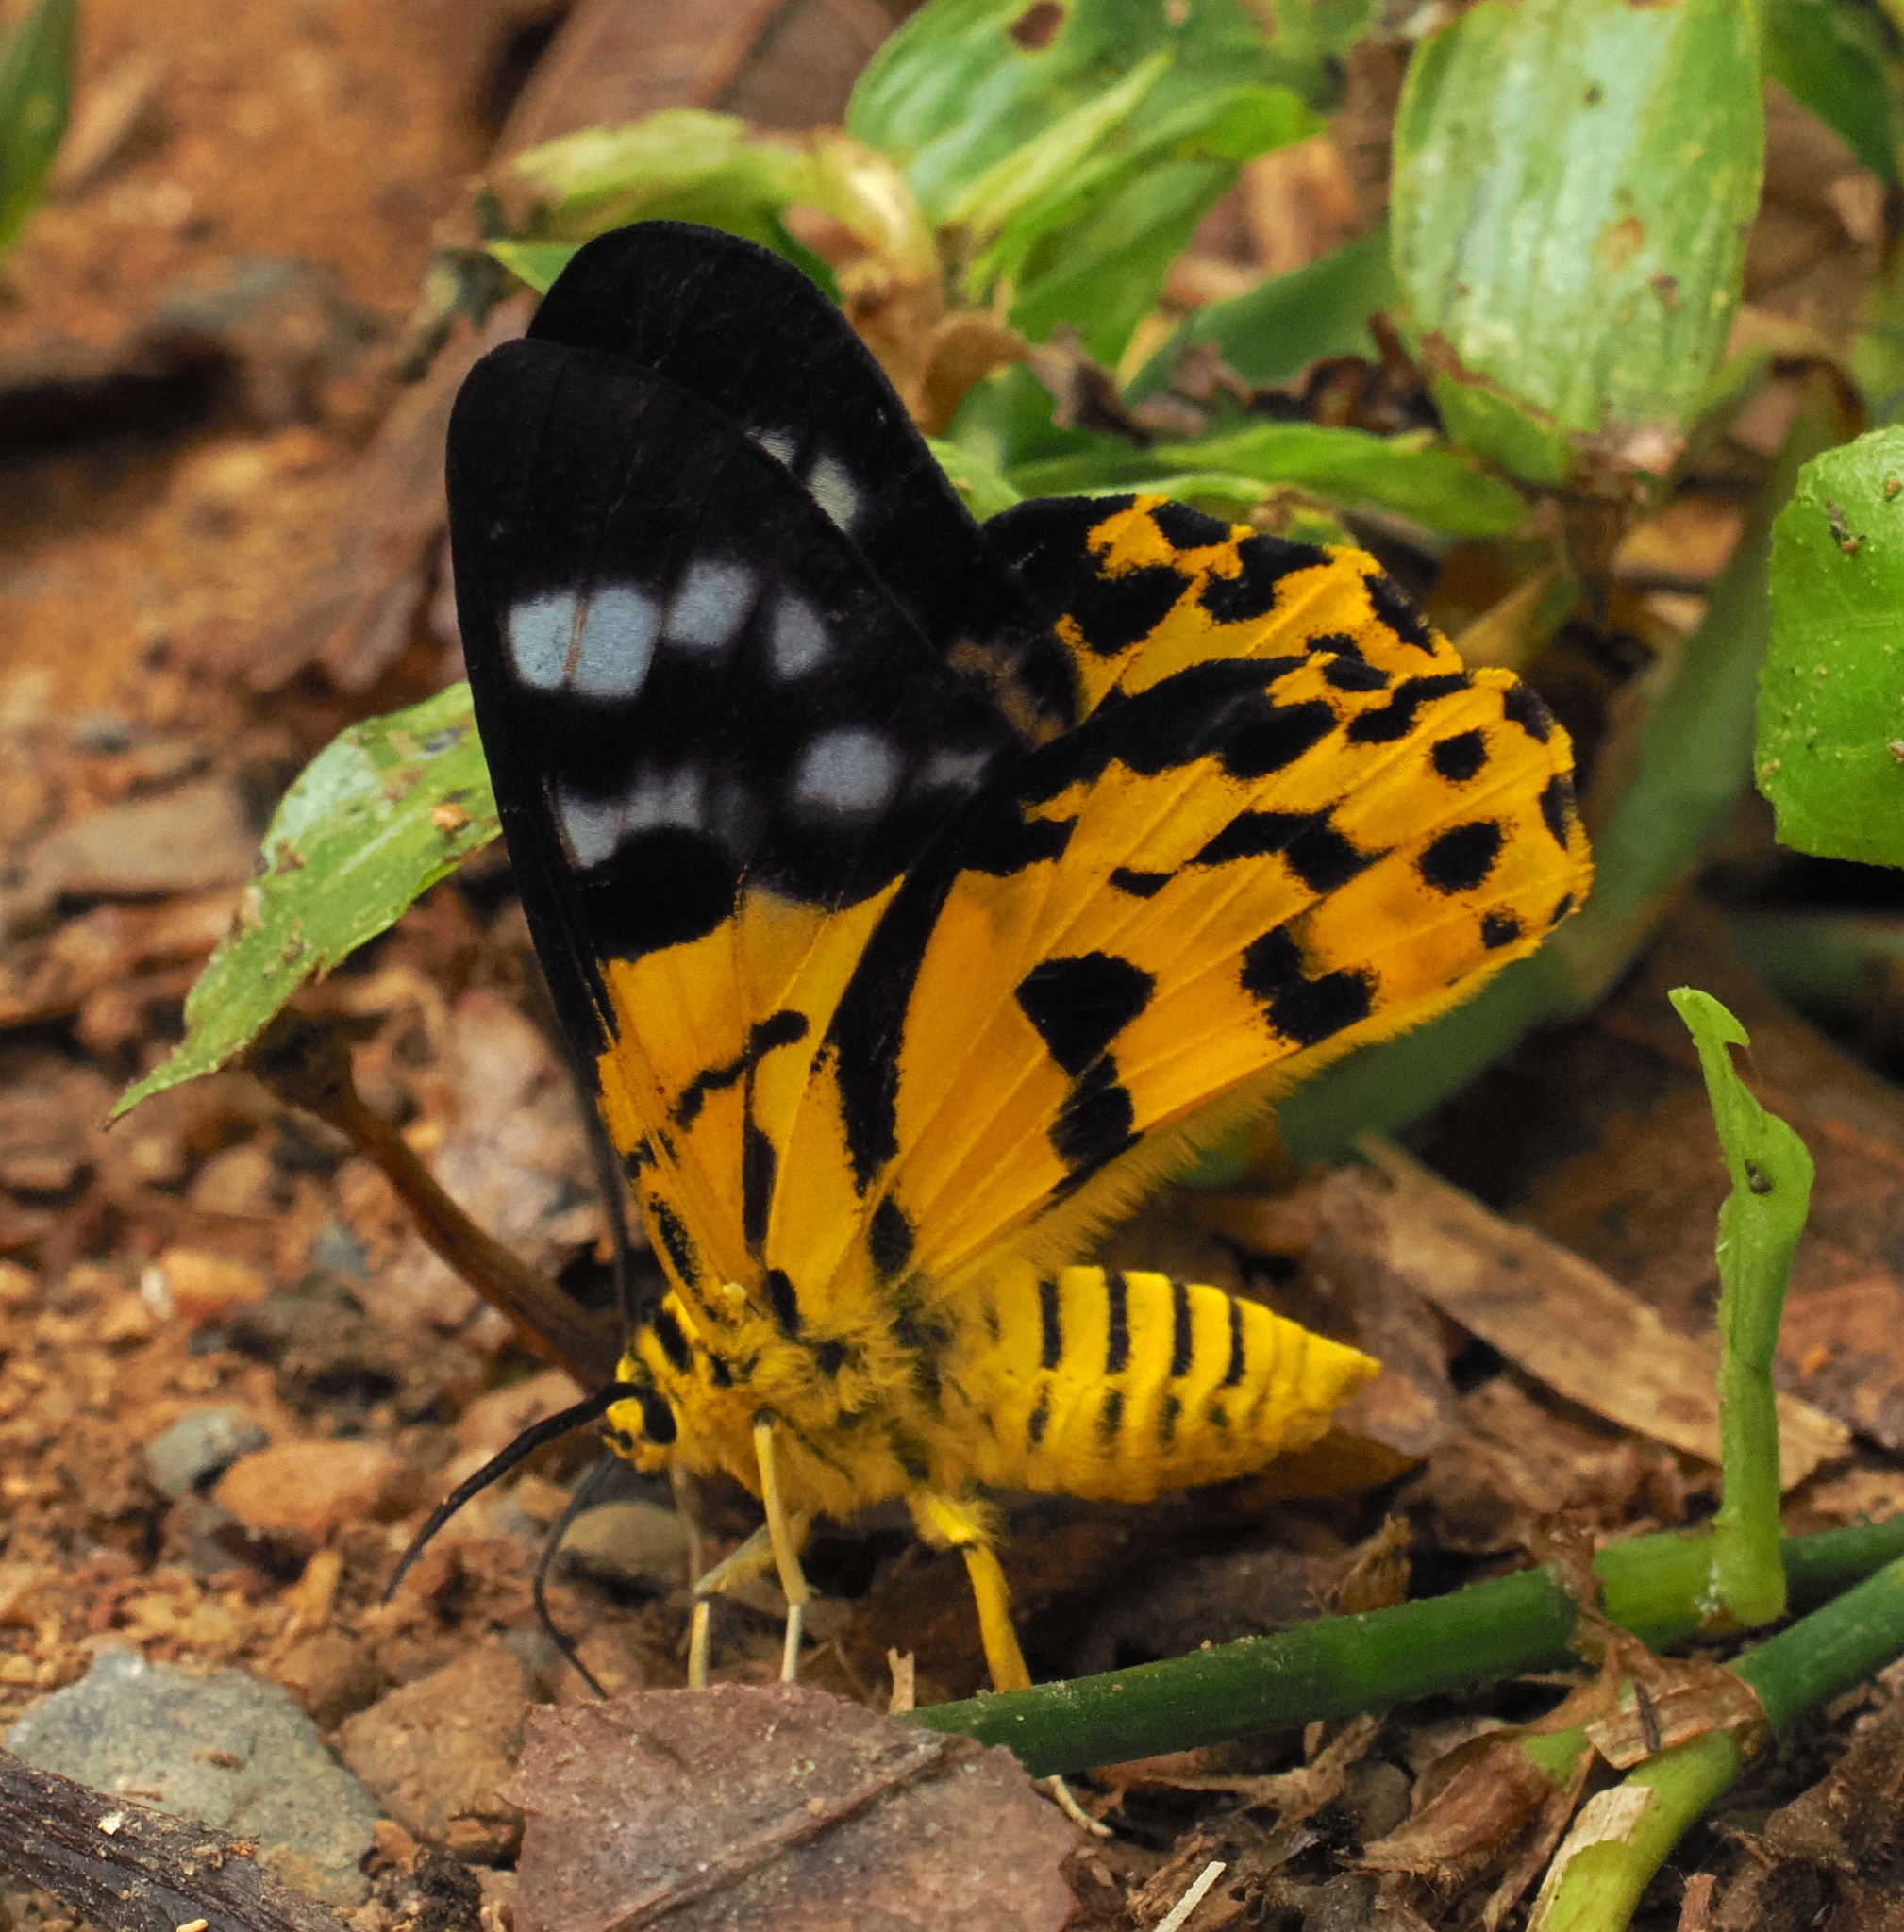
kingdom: Animalia
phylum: Arthropoda
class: Insecta
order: Lepidoptera
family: Geometridae
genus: Dysphania
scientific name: Dysphania subrepleta
